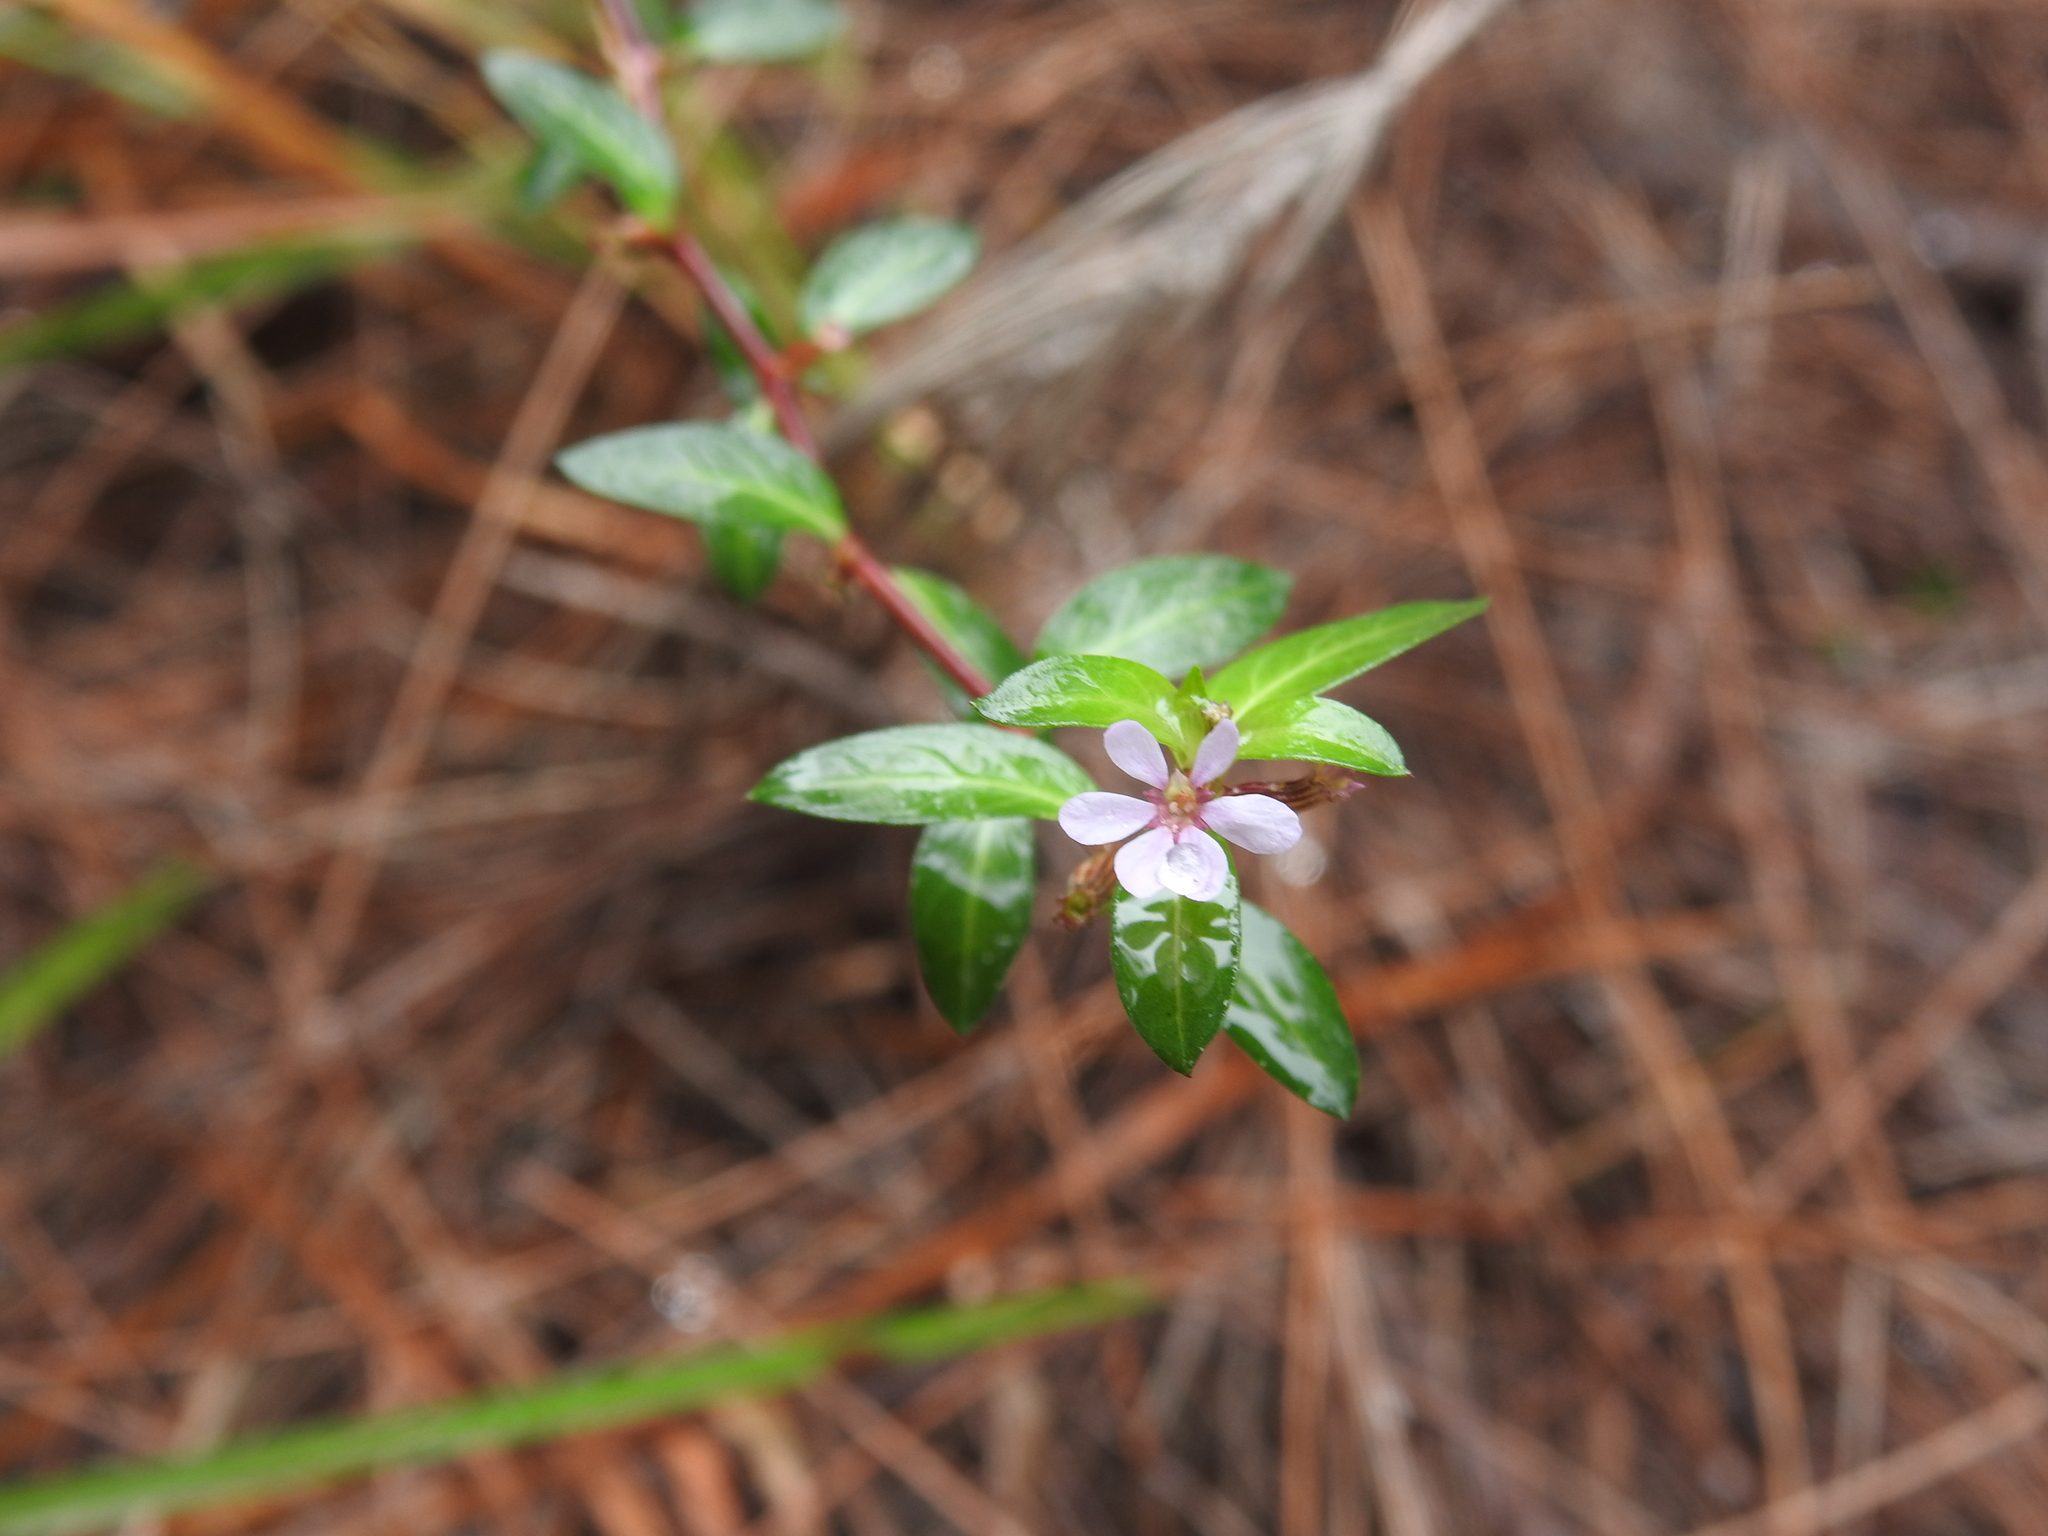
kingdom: Plantae
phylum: Tracheophyta
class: Magnoliopsida
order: Myrtales
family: Lythraceae
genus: Cuphea
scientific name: Cuphea strigulosa
